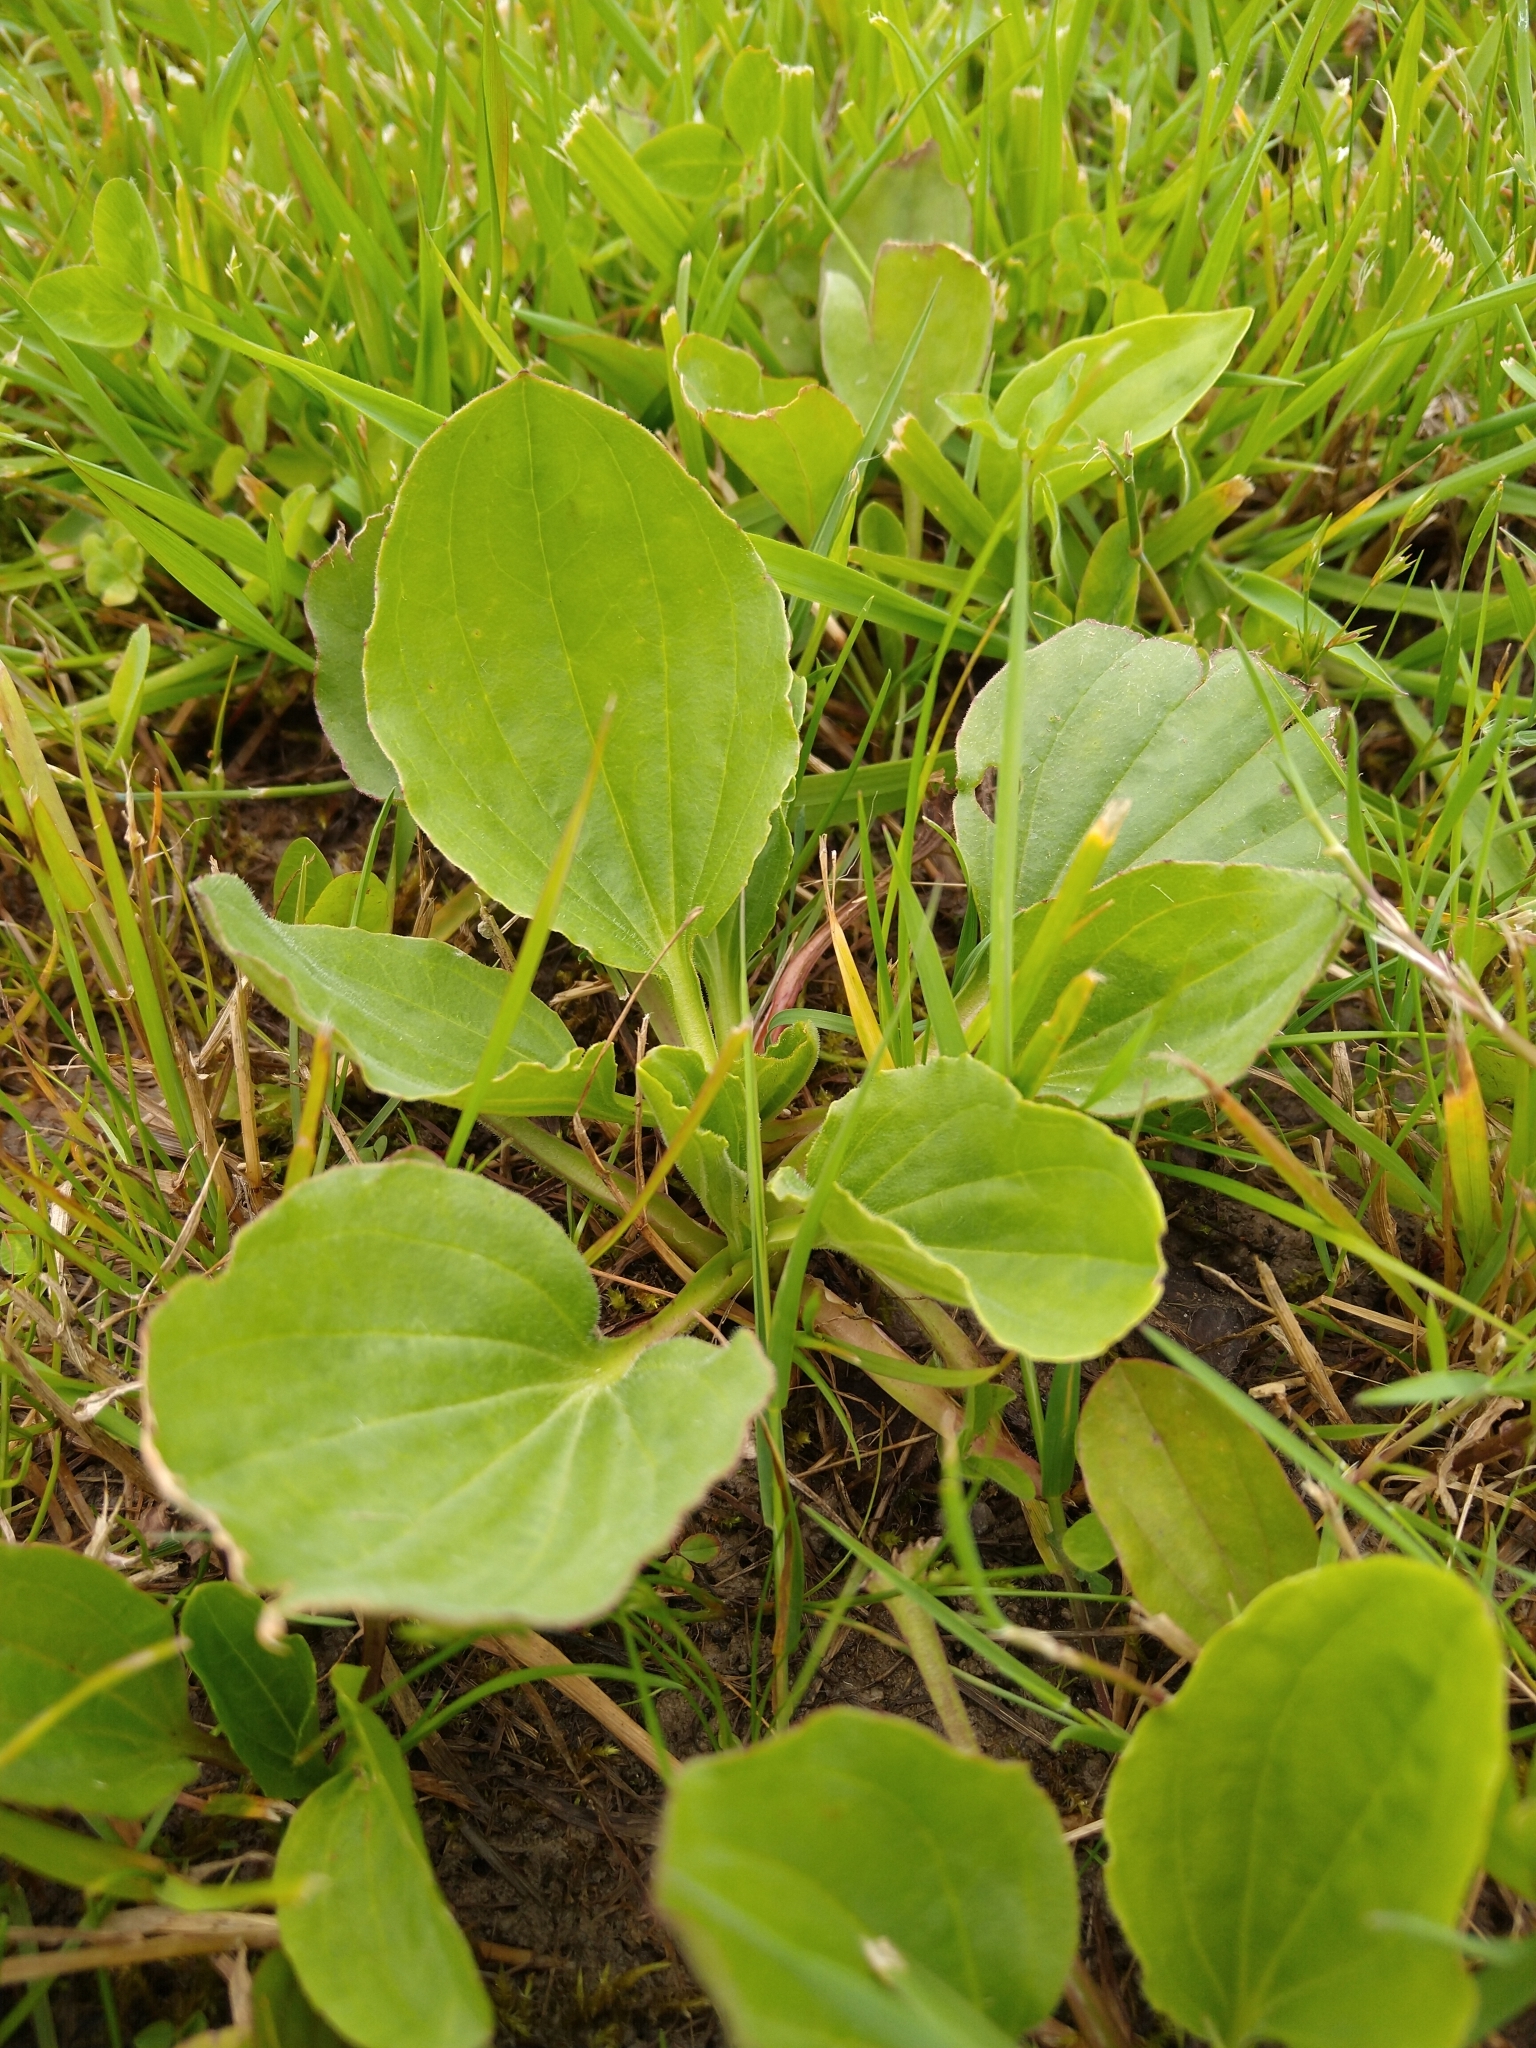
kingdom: Plantae
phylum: Tracheophyta
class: Magnoliopsida
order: Lamiales
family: Plantaginaceae
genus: Plantago
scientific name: Plantago major
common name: Common plantain
